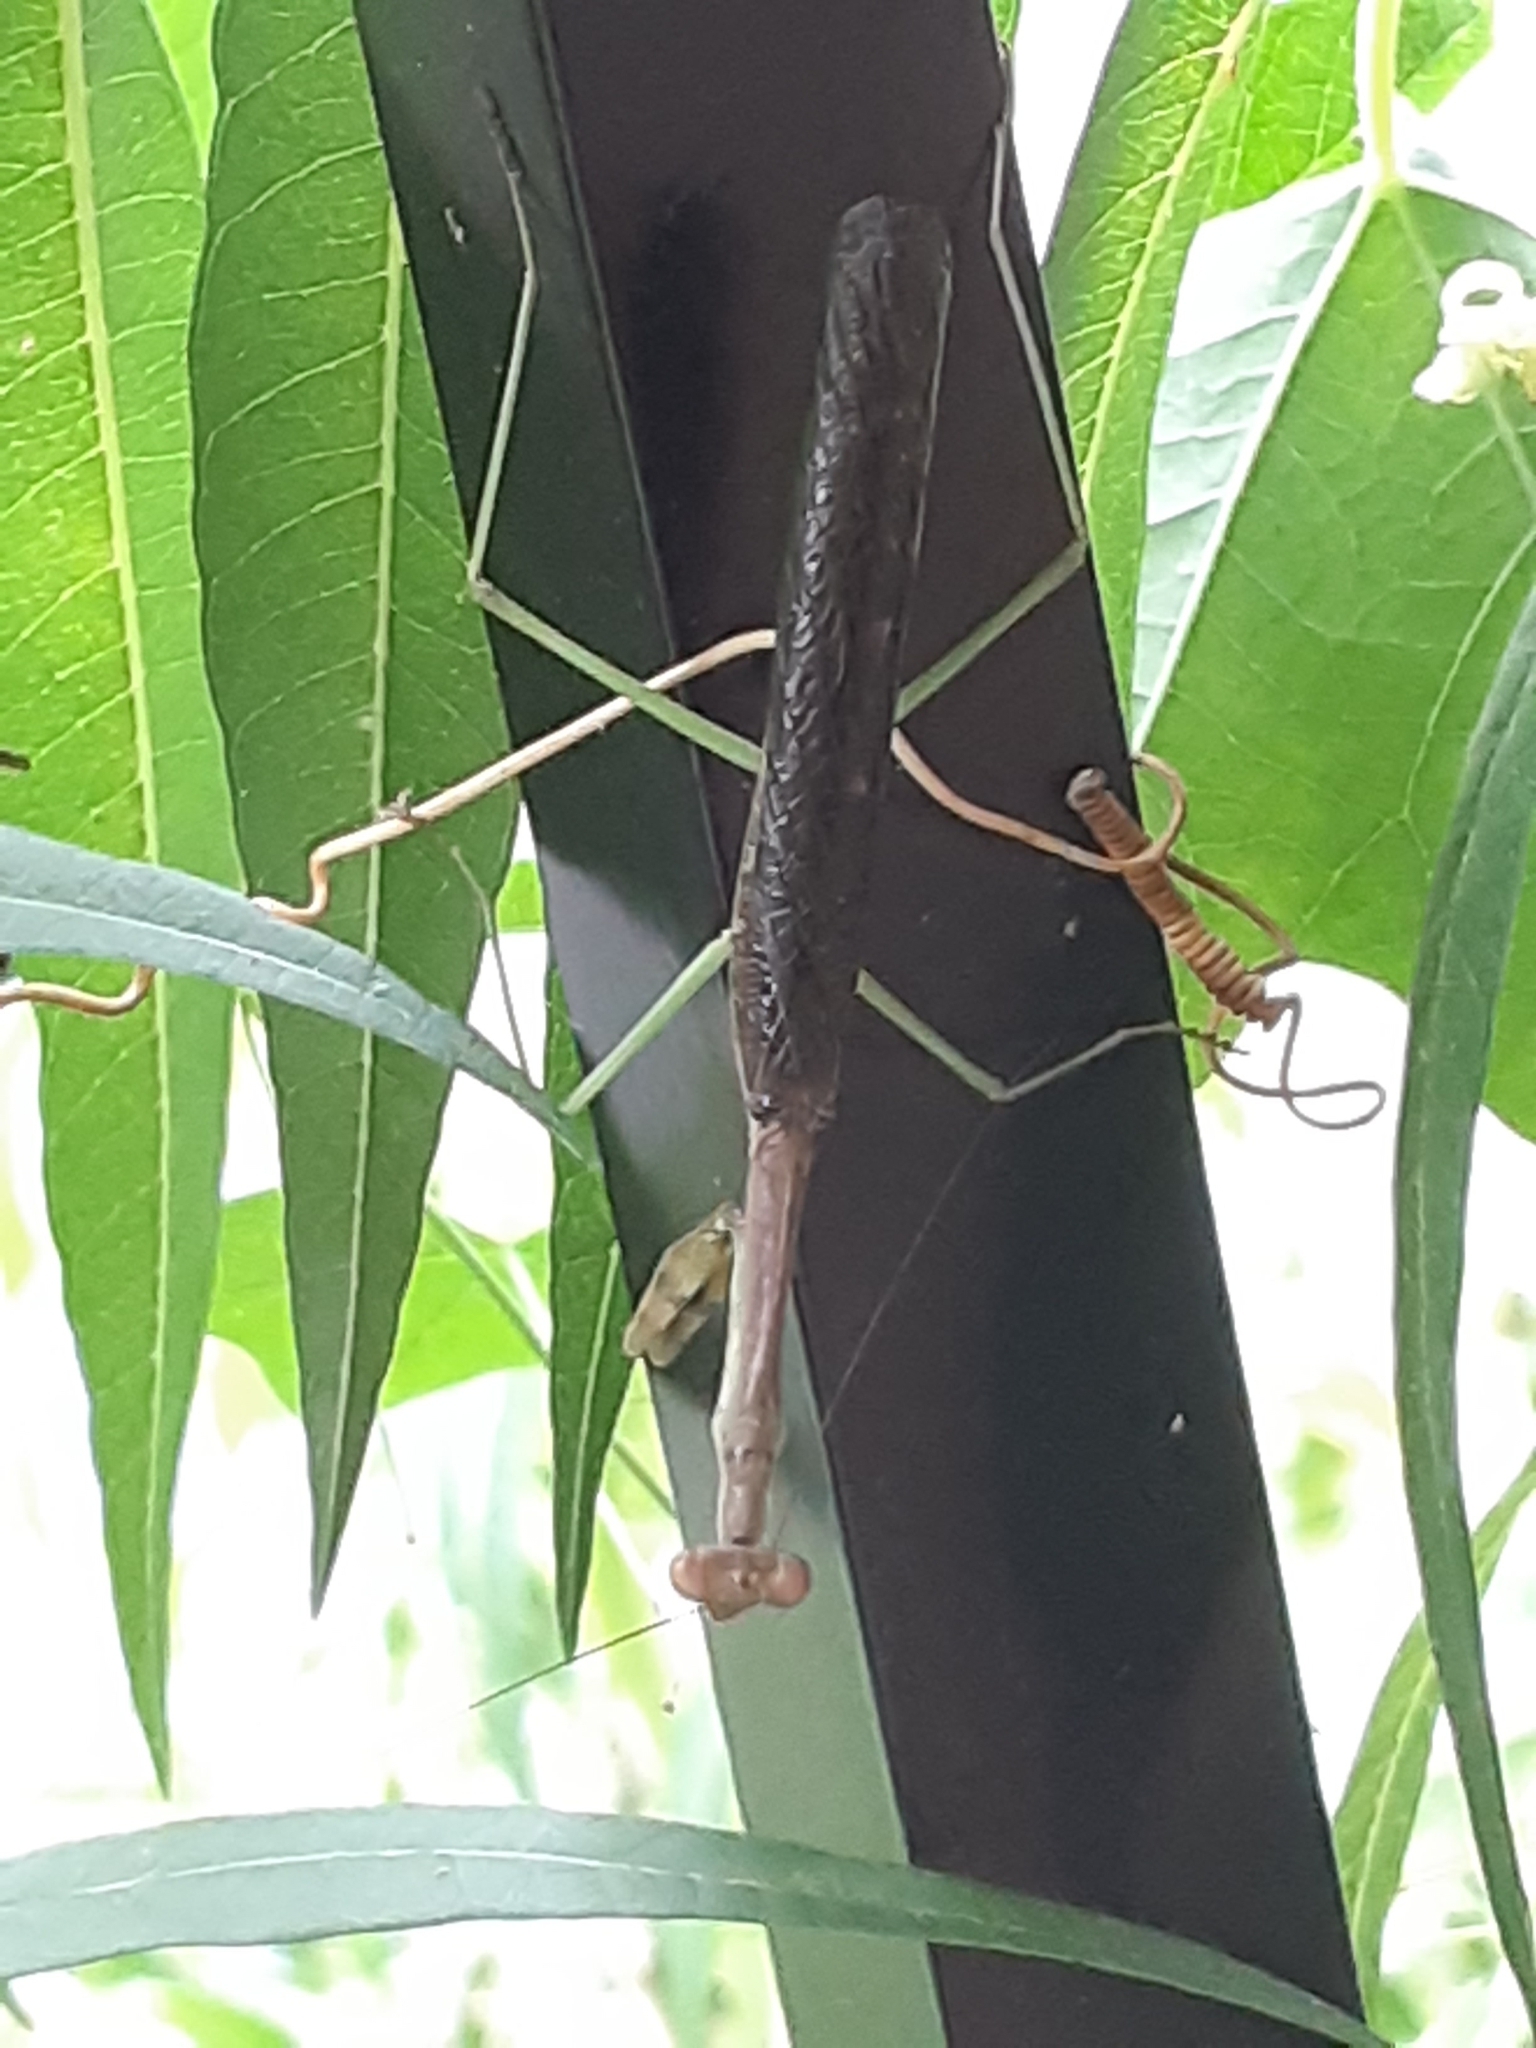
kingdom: Animalia
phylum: Arthropoda
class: Insecta
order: Mantodea
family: Mantidae
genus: Stagmomantis
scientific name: Stagmomantis carolina
